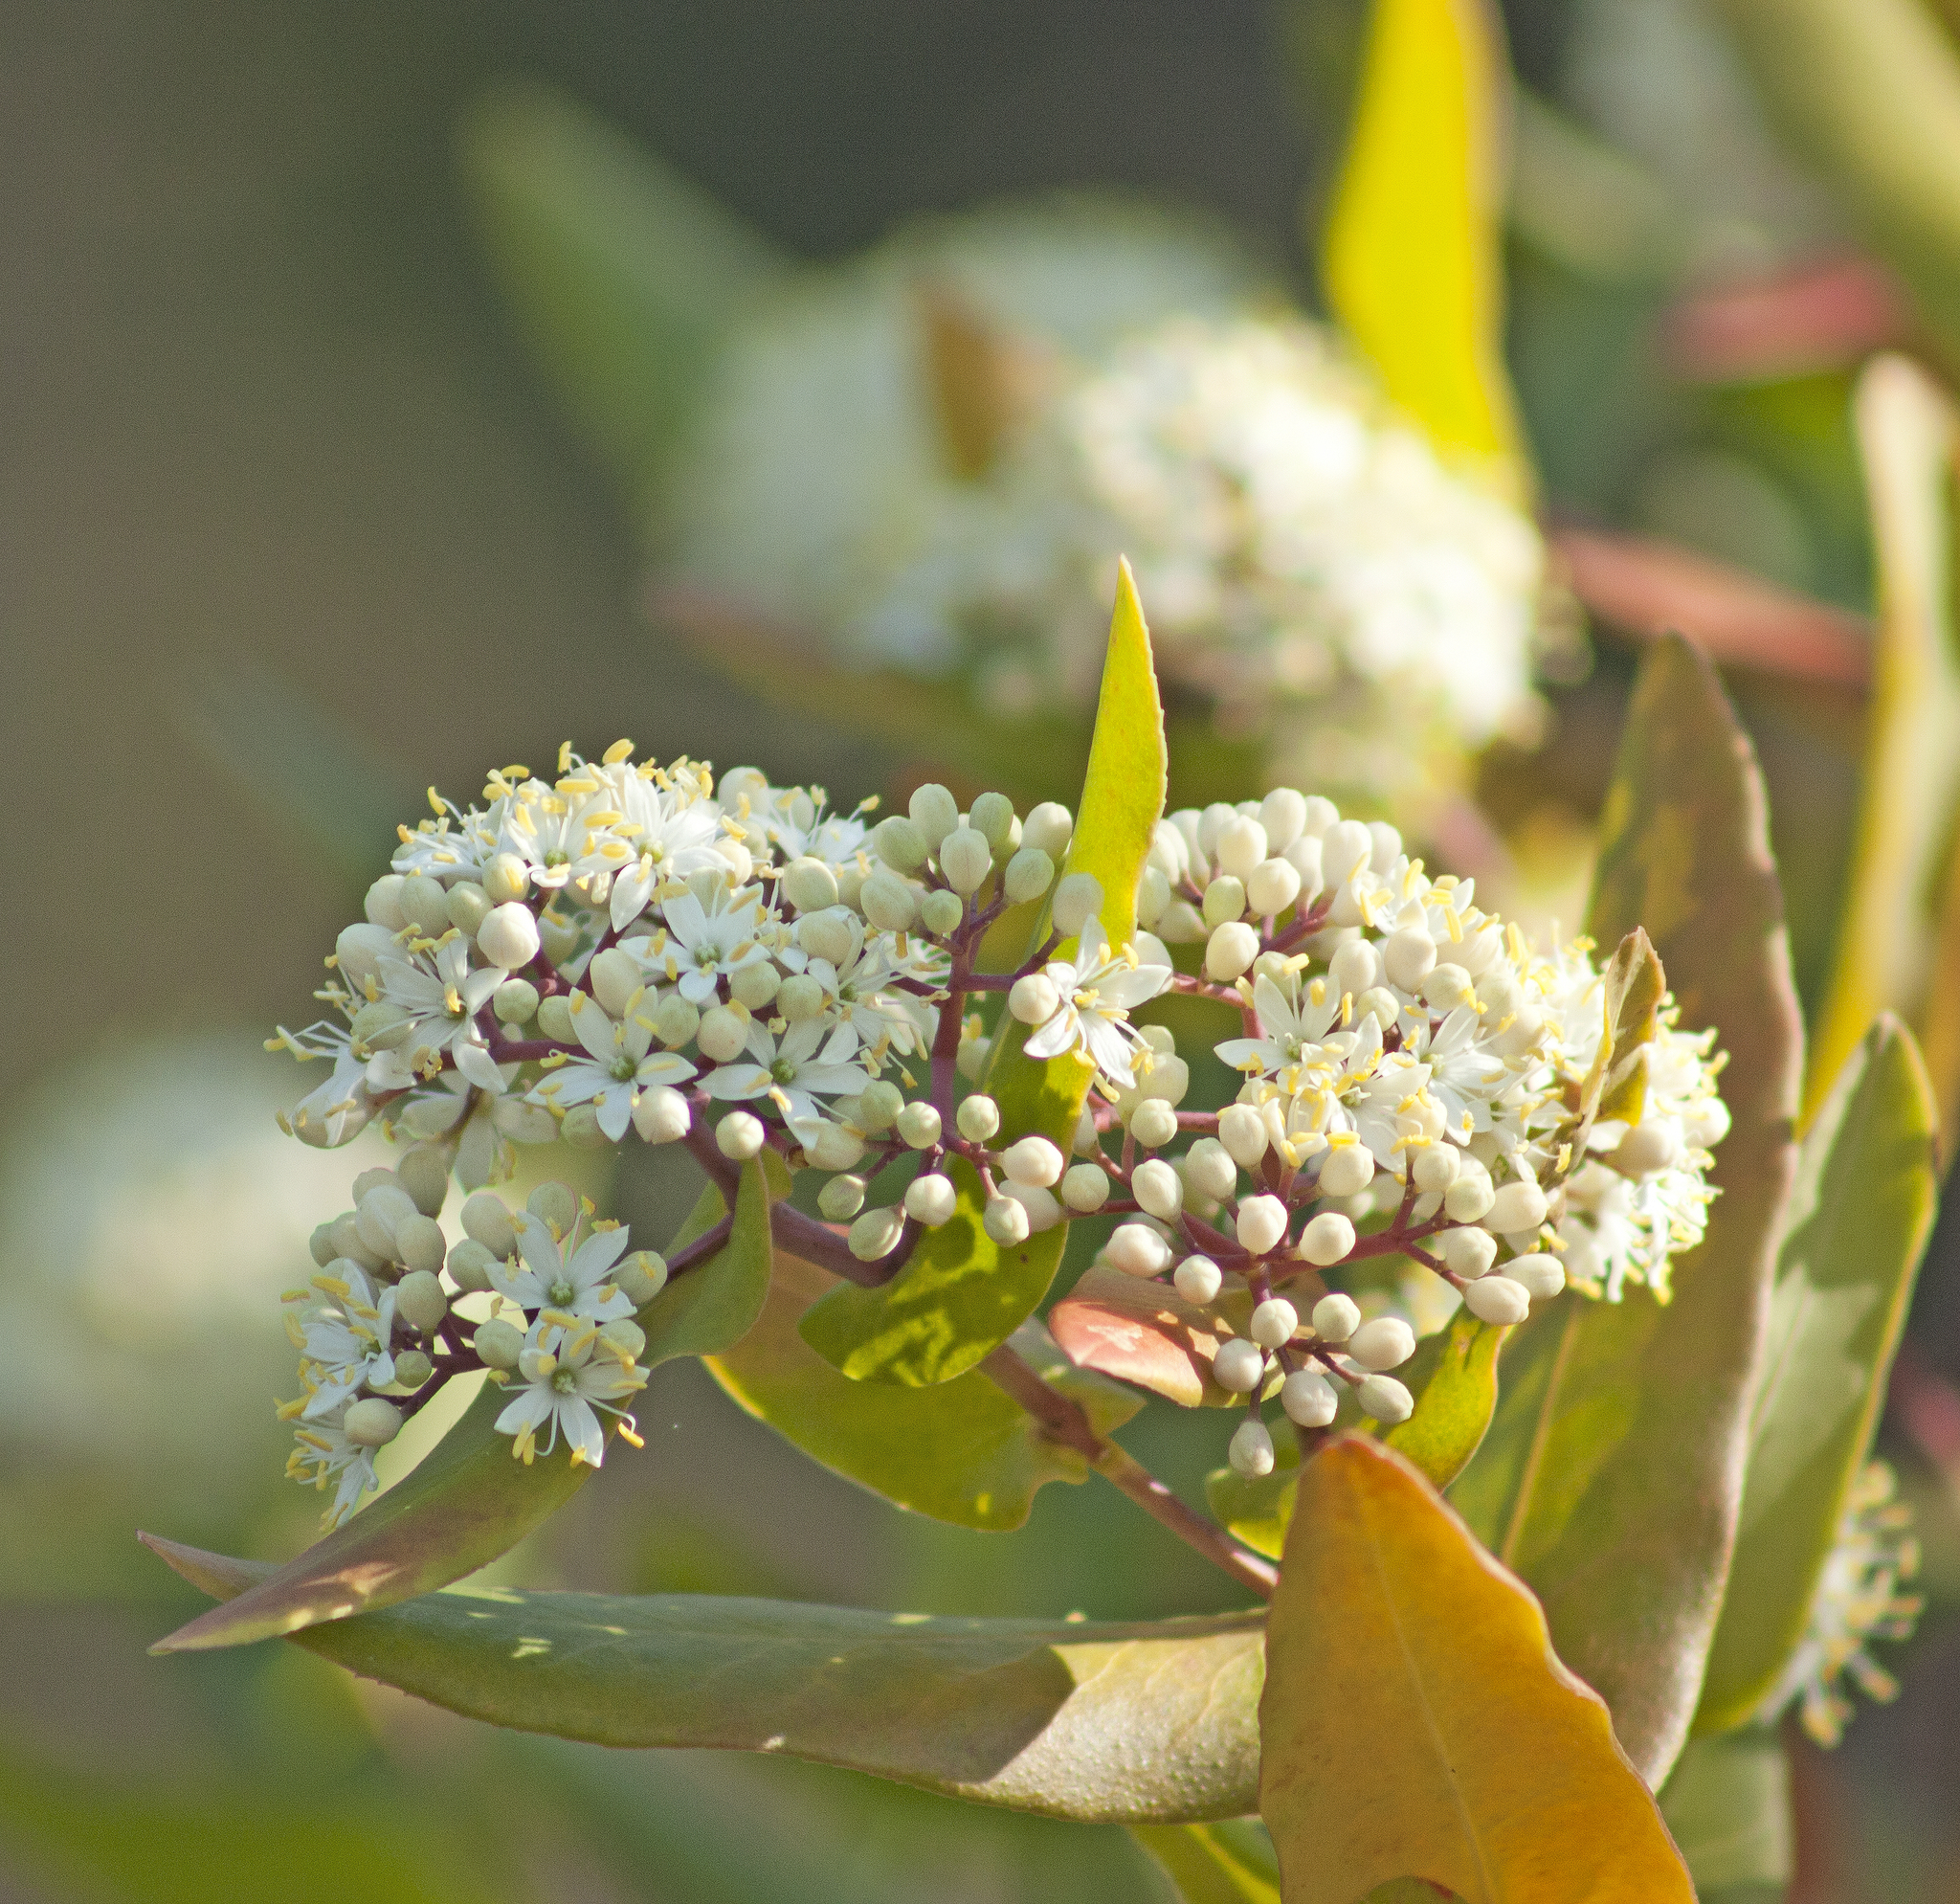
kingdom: Plantae
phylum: Tracheophyta
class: Magnoliopsida
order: Sapindales
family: Rutaceae
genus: Leionema
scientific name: Leionema ambiens
